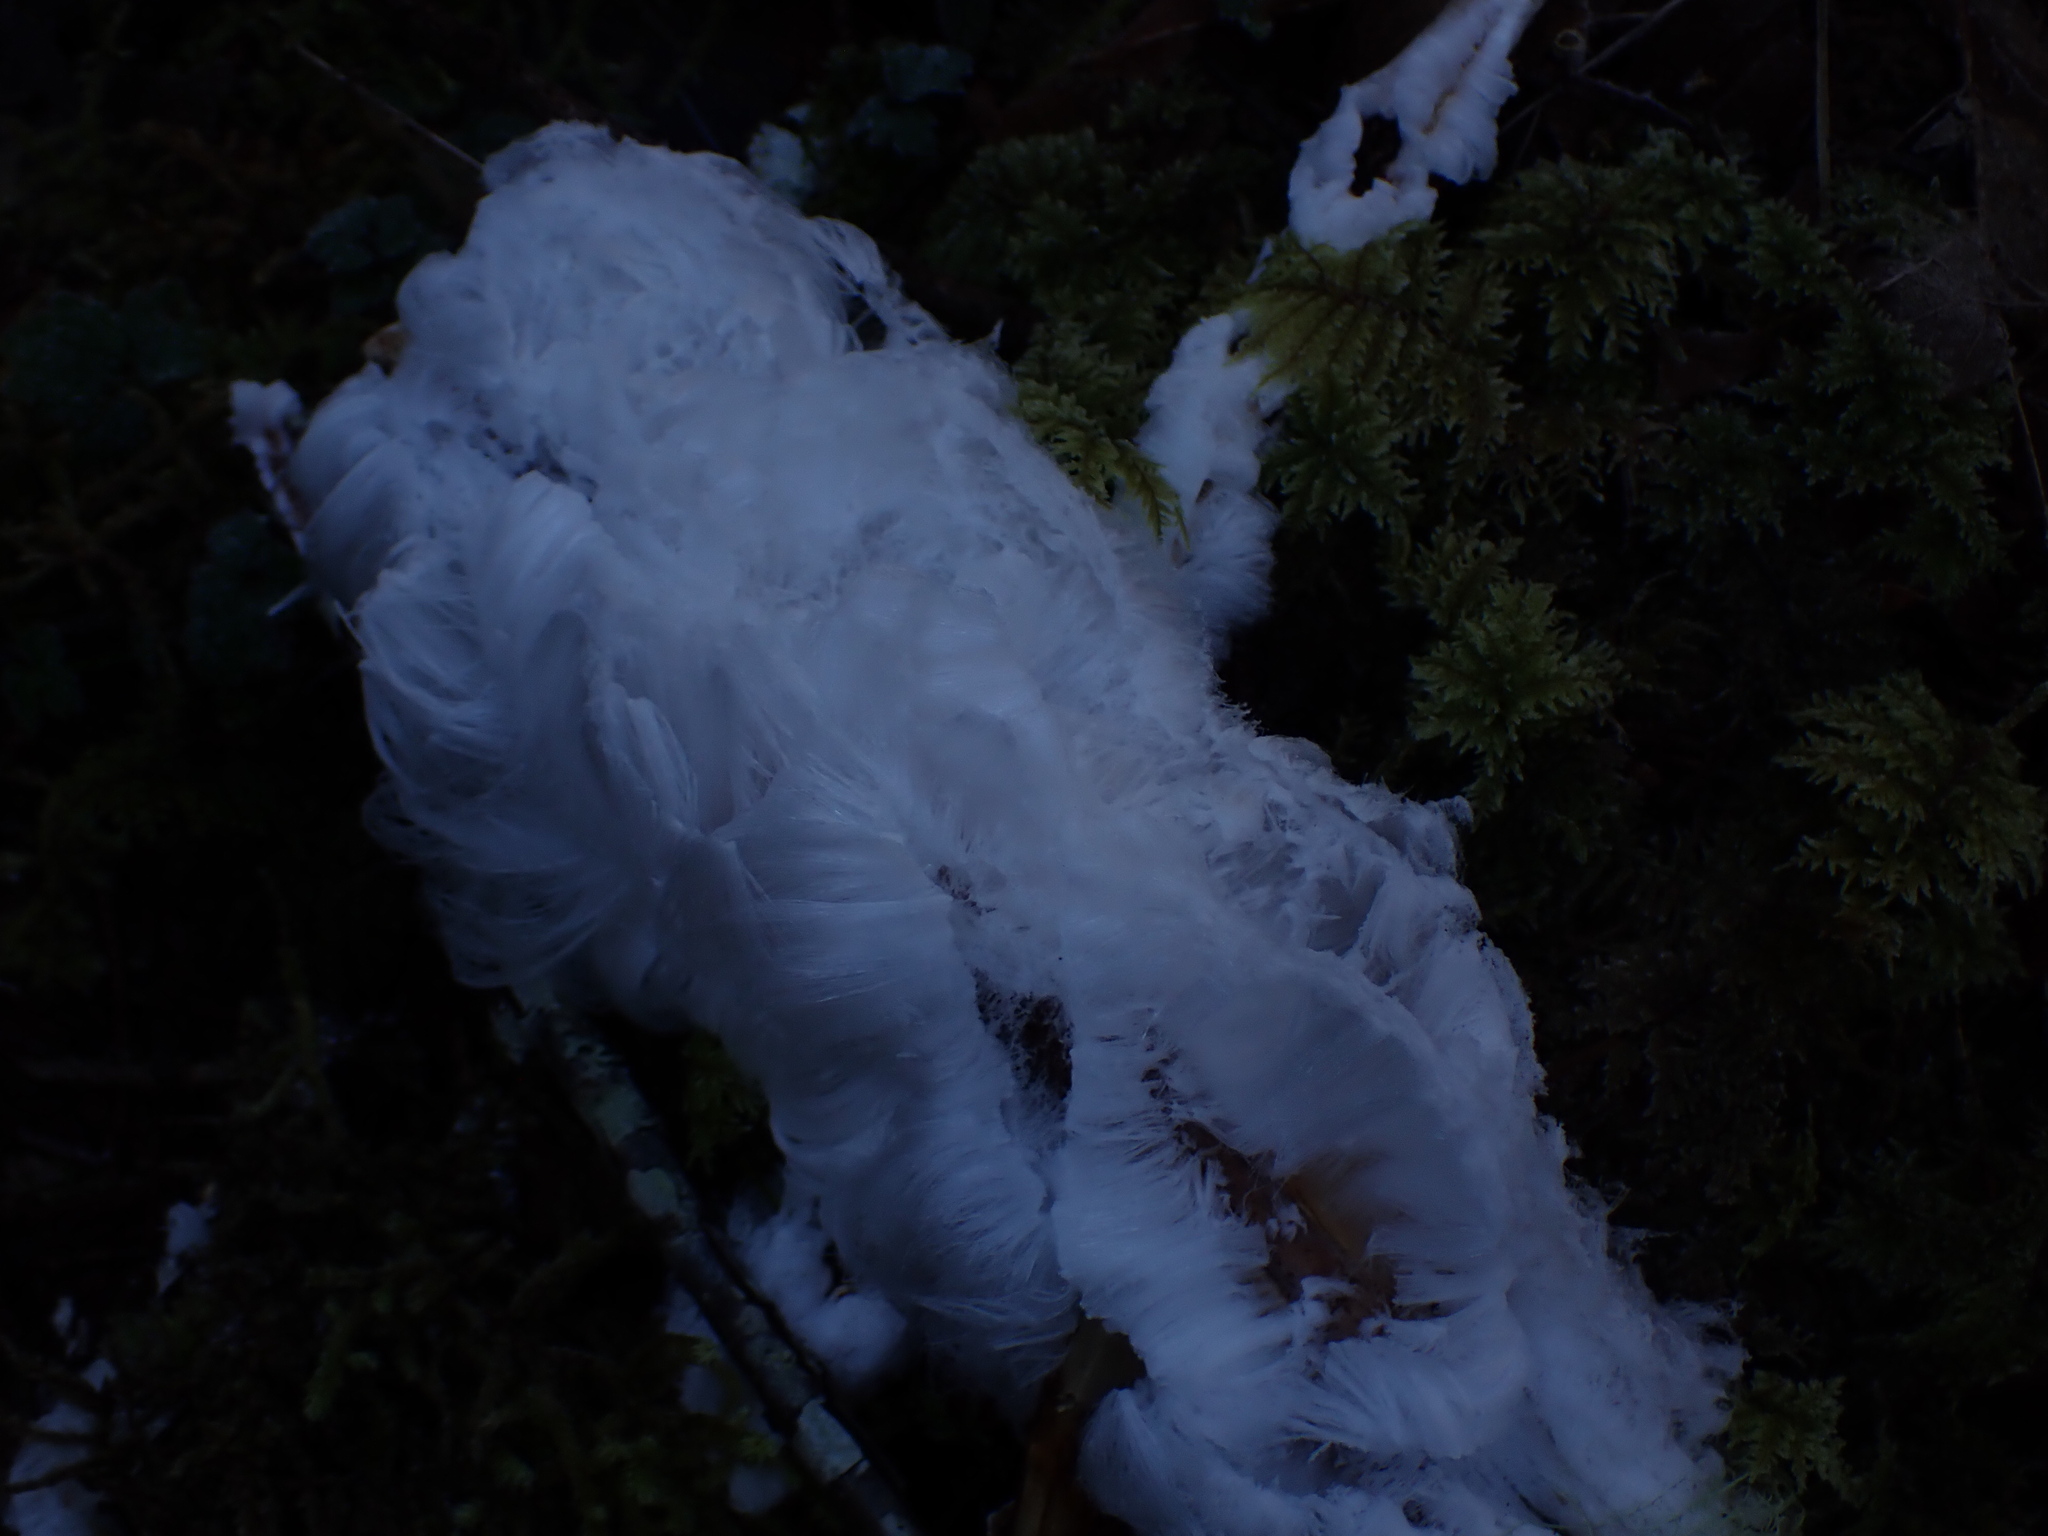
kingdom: Fungi
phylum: Basidiomycota
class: Agaricomycetes
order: Auriculariales
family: Auriculariaceae
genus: Exidiopsis
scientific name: Exidiopsis effusa
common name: Hair ice crust
